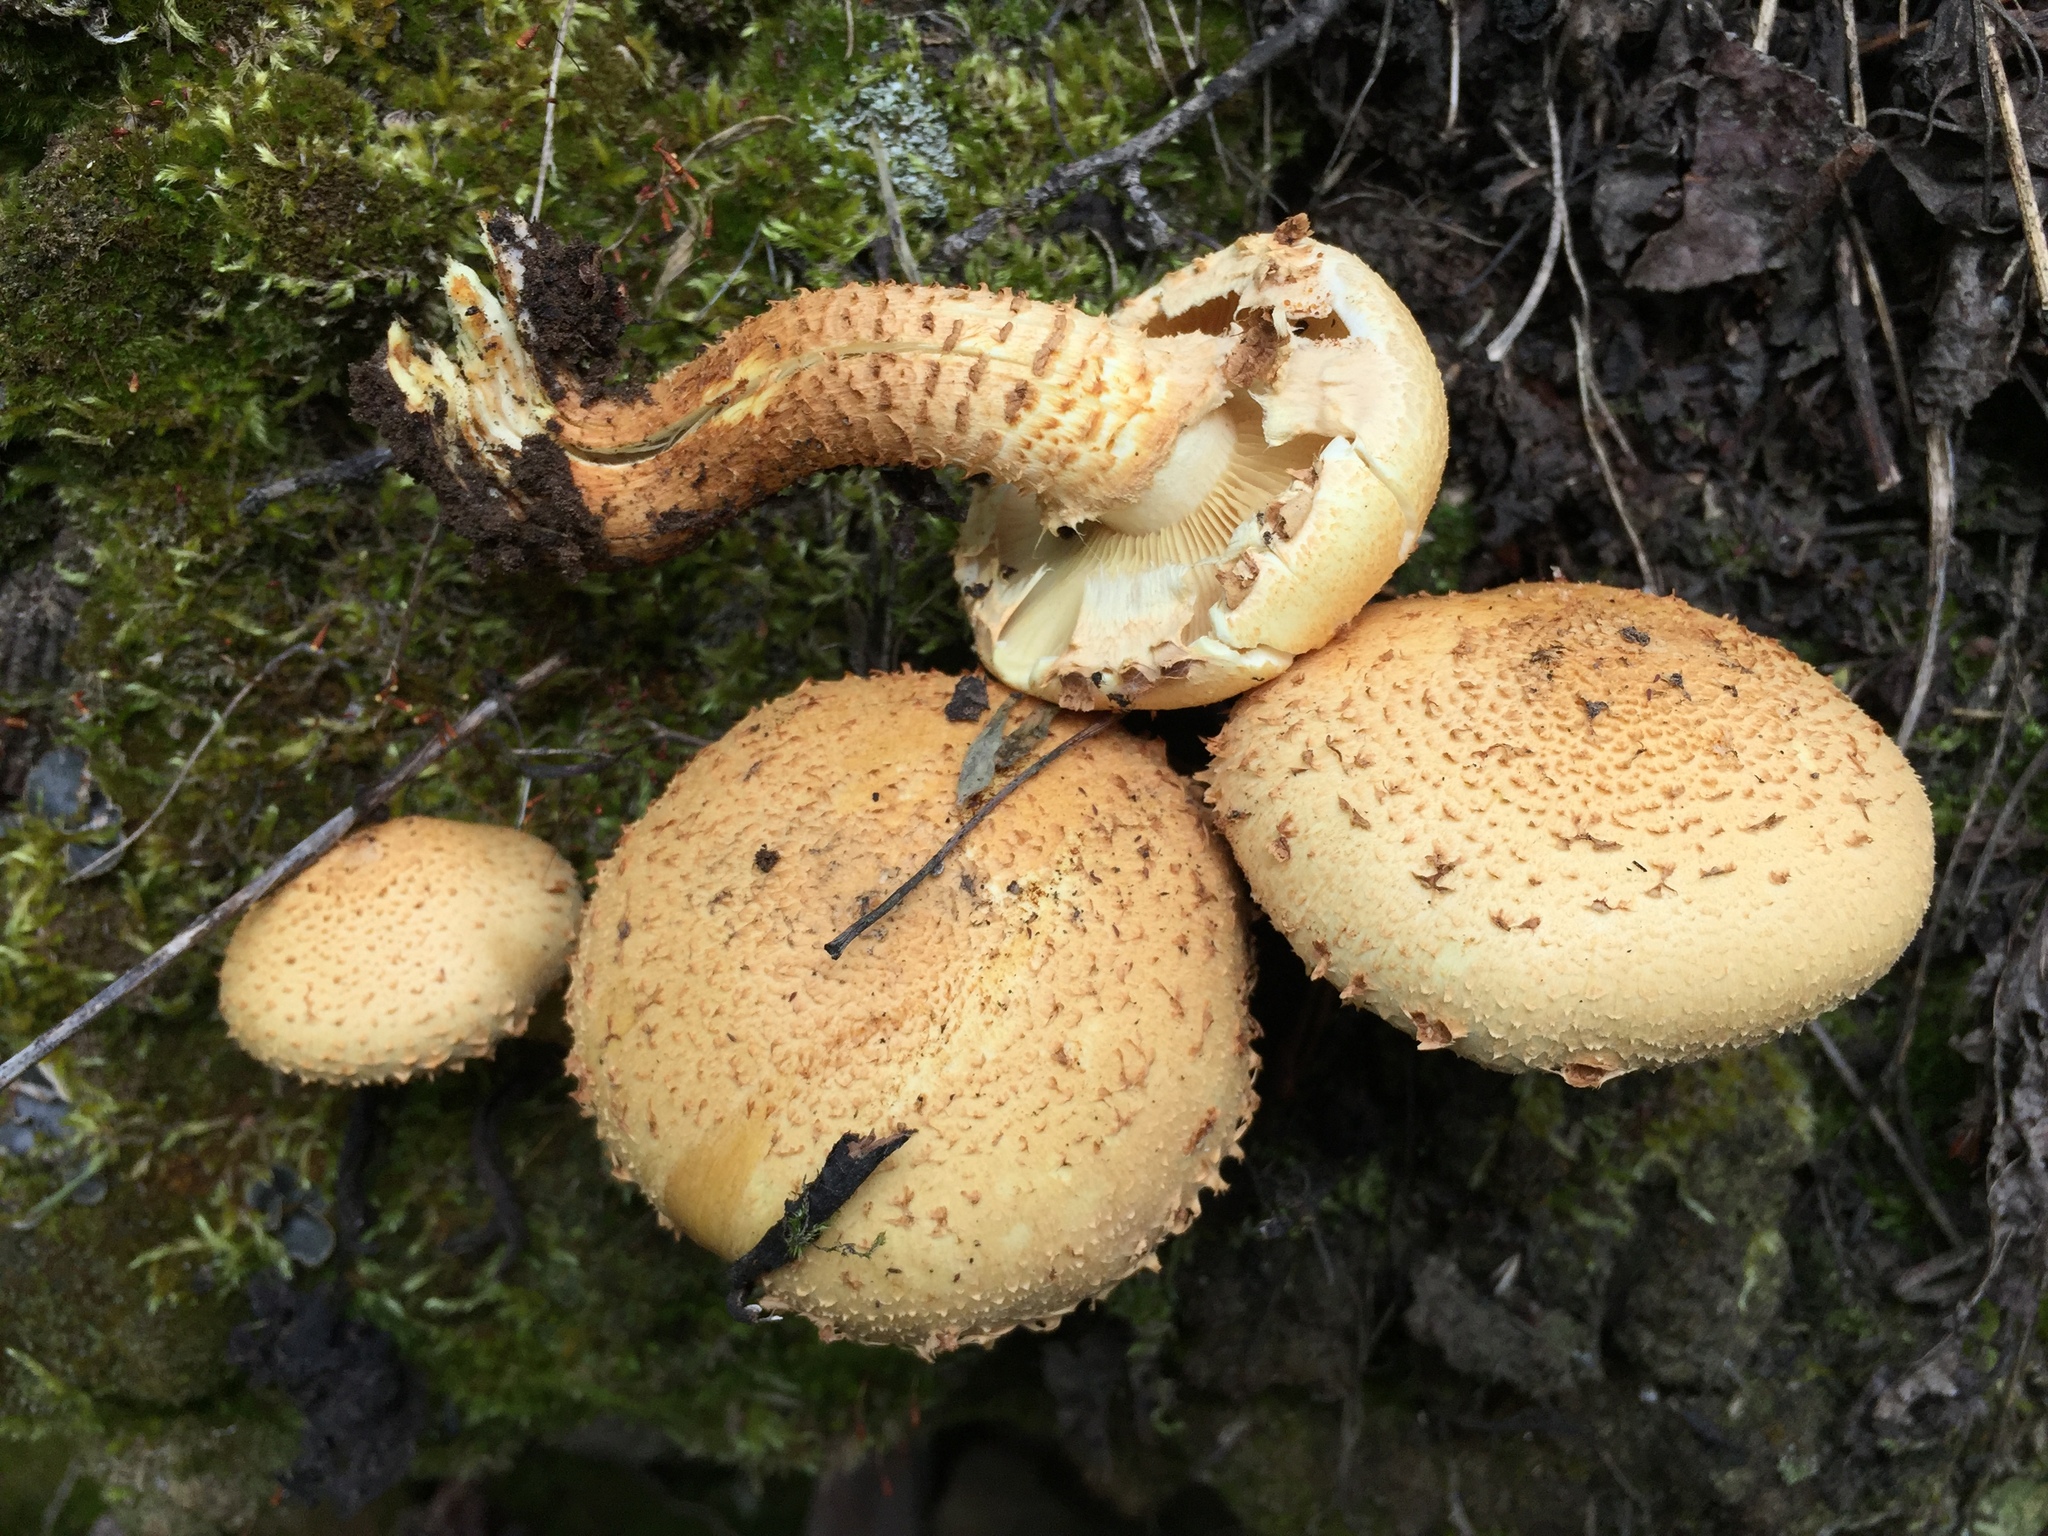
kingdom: Fungi
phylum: Basidiomycota
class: Agaricomycetes
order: Agaricales
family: Strophariaceae
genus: Pholiota
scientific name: Pholiota squarrosa
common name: Shaggy pholiota
